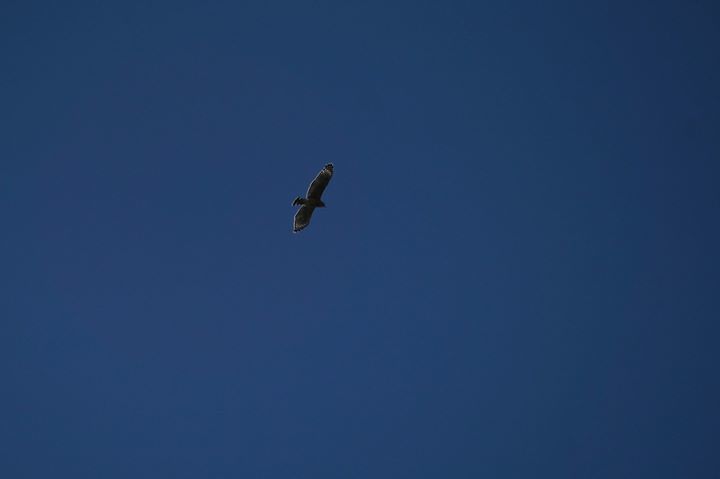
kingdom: Animalia
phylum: Chordata
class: Aves
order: Accipitriformes
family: Accipitridae
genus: Buteo
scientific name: Buteo lineatus
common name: Red-shouldered hawk
